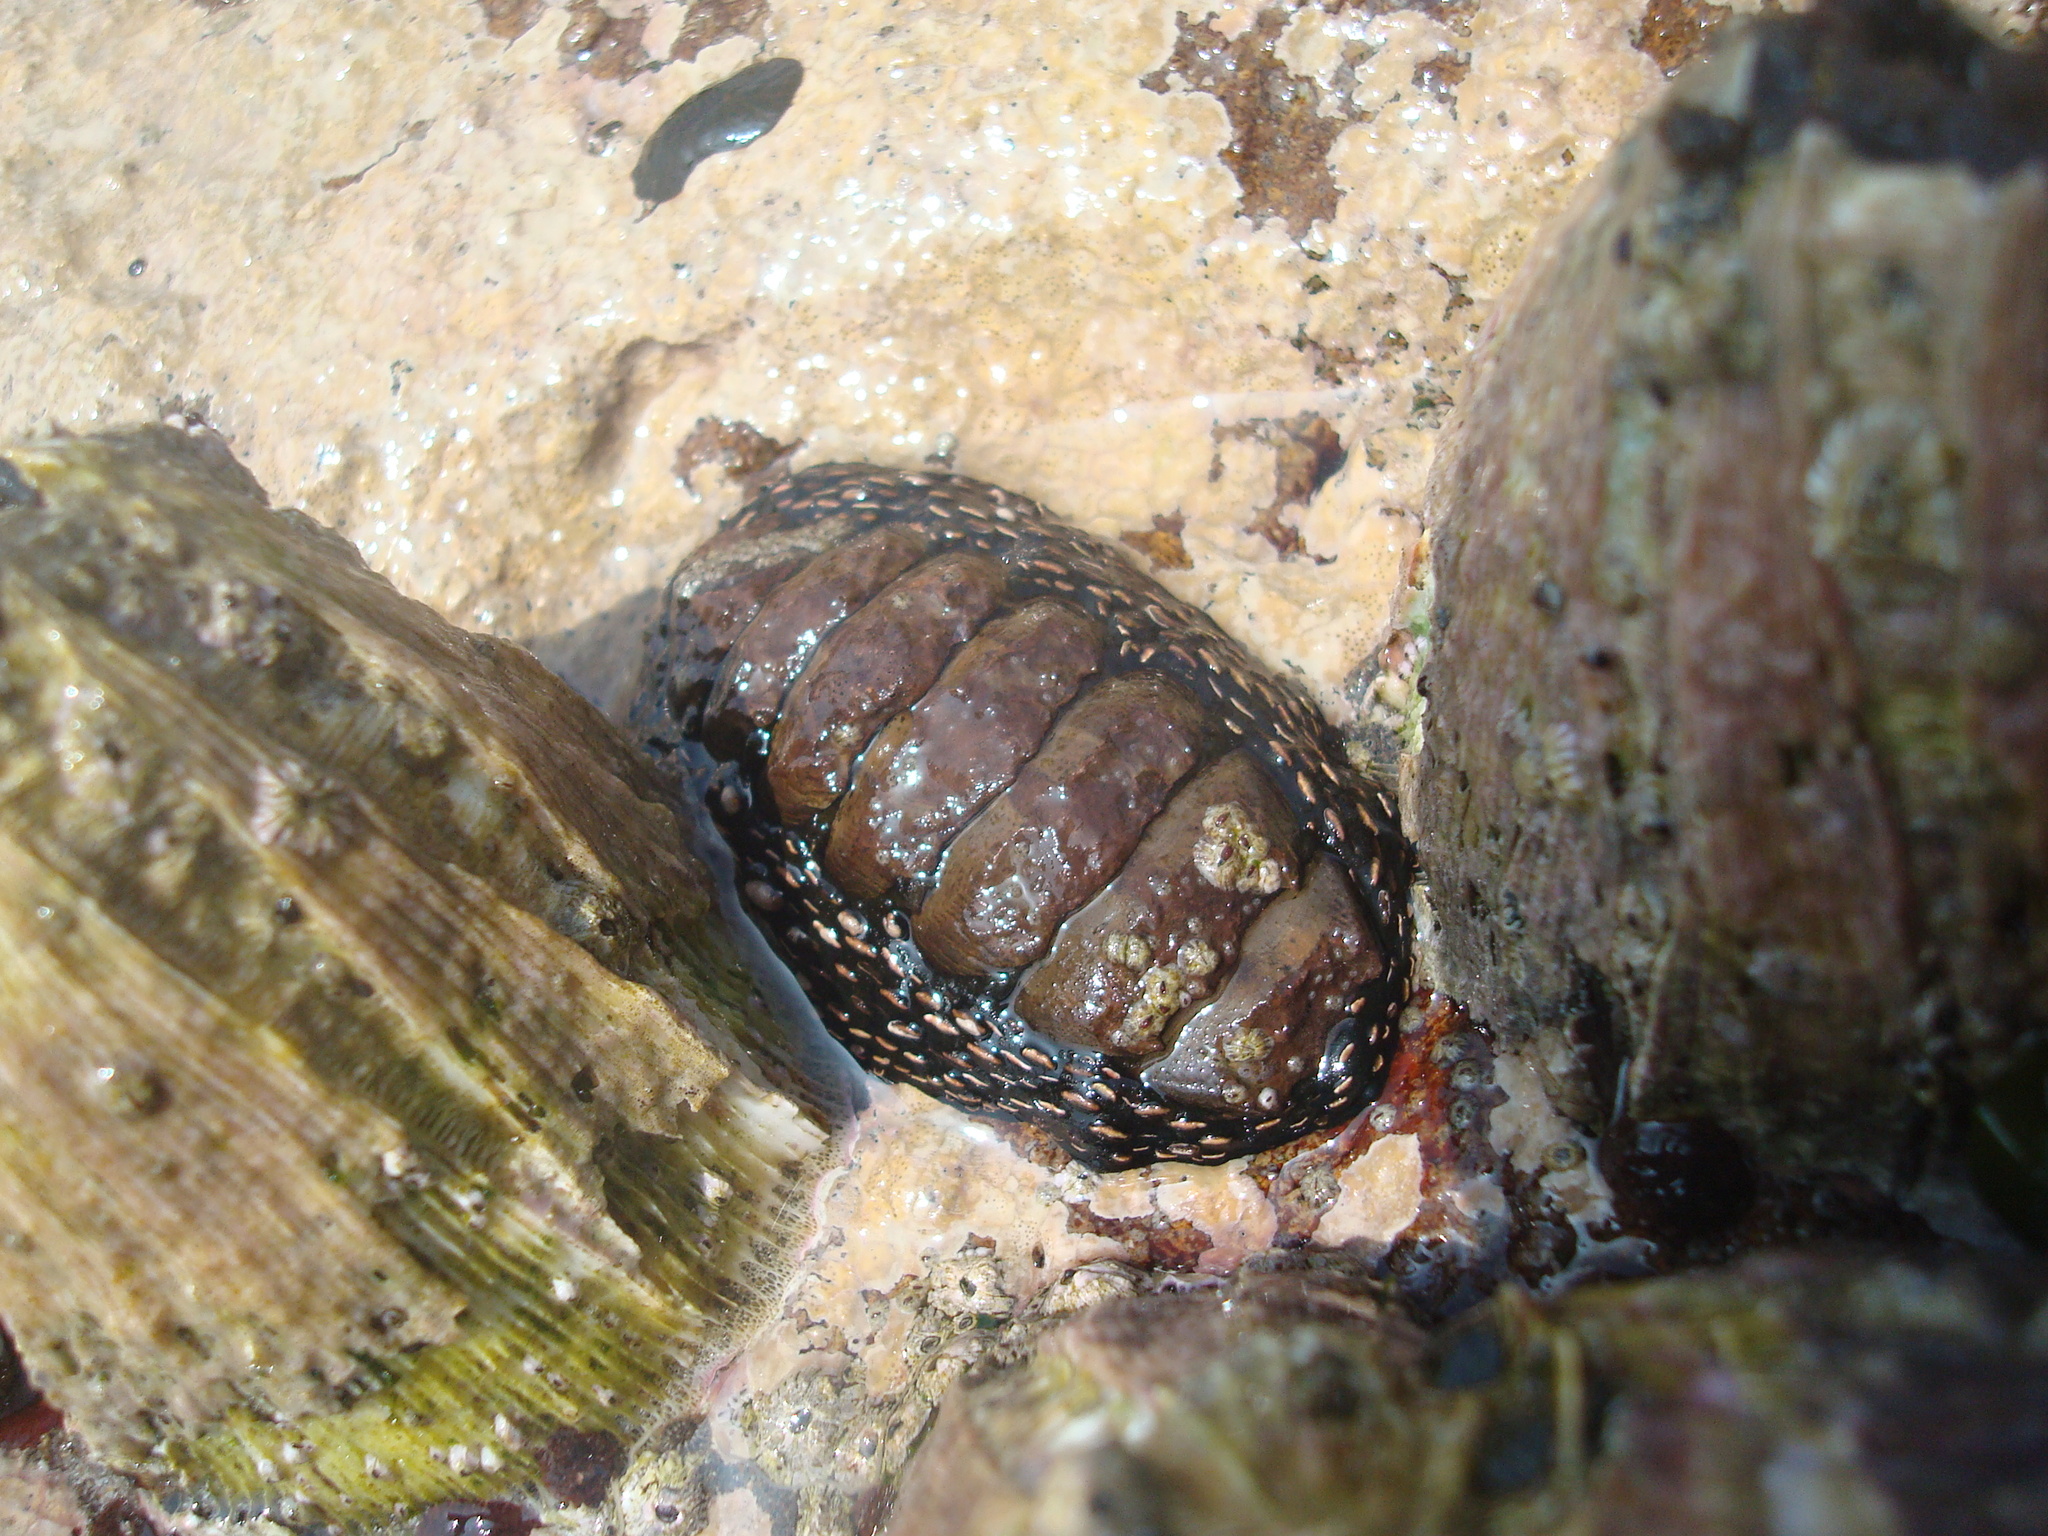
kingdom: Animalia
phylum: Mollusca
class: Polyplacophora
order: Chitonida
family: Chitonidae
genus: Enoplochiton
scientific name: Enoplochiton niger
